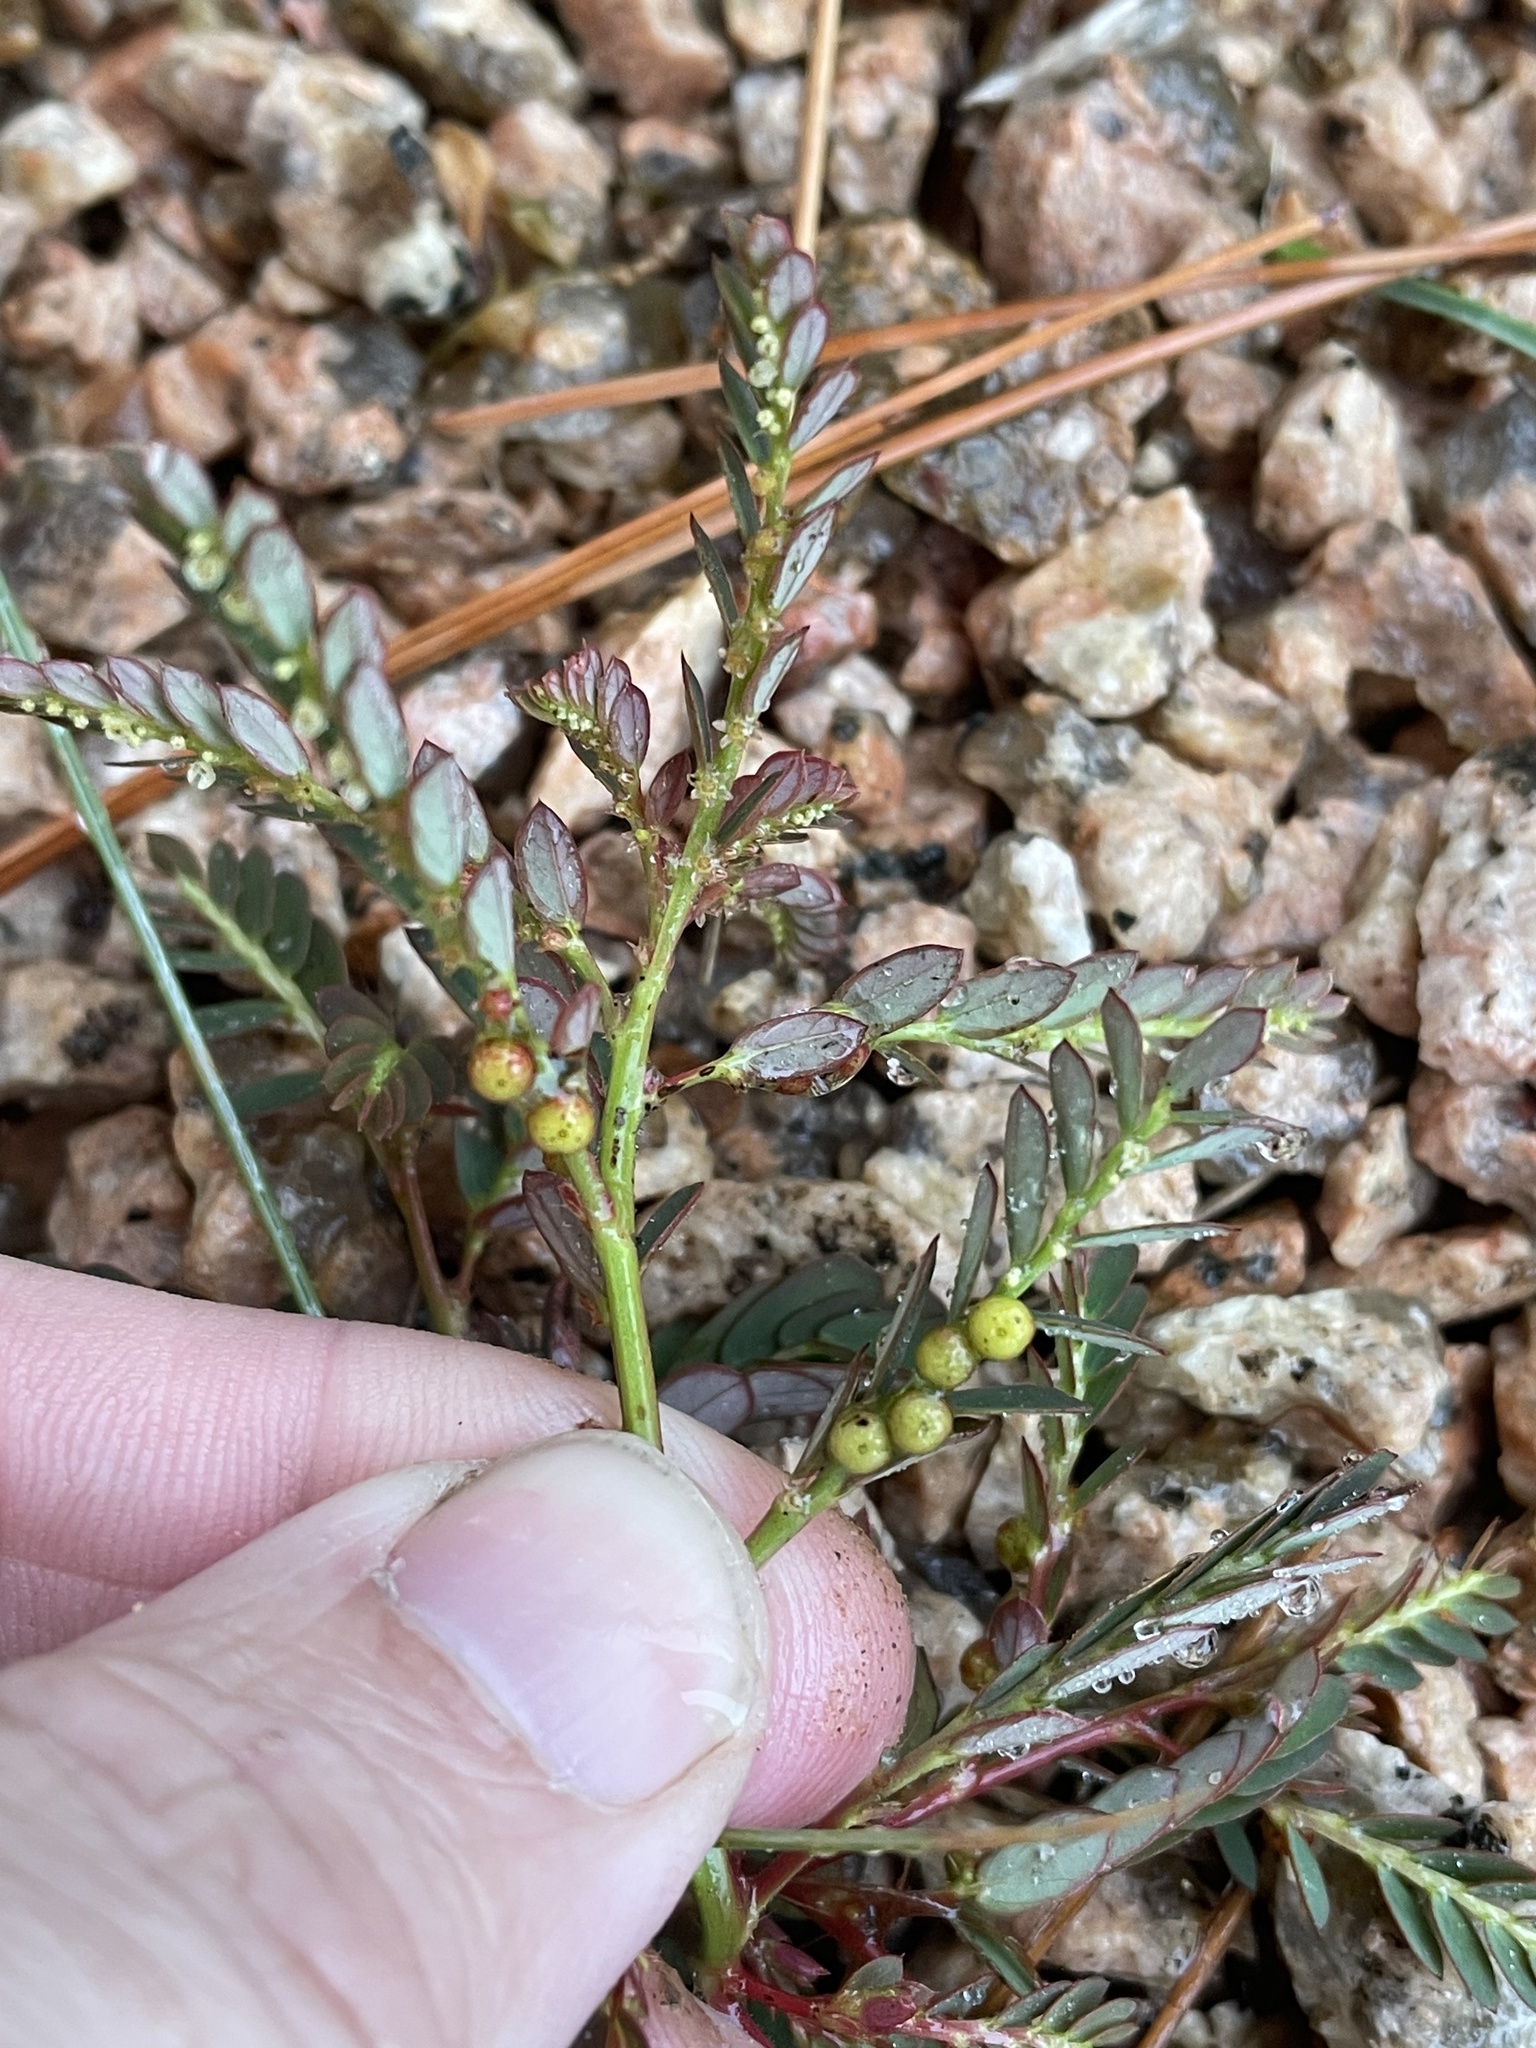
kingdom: Plantae
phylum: Tracheophyta
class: Magnoliopsida
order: Malpighiales
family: Phyllanthaceae
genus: Phyllanthus
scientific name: Phyllanthus urinaria
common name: Chamber bitter
